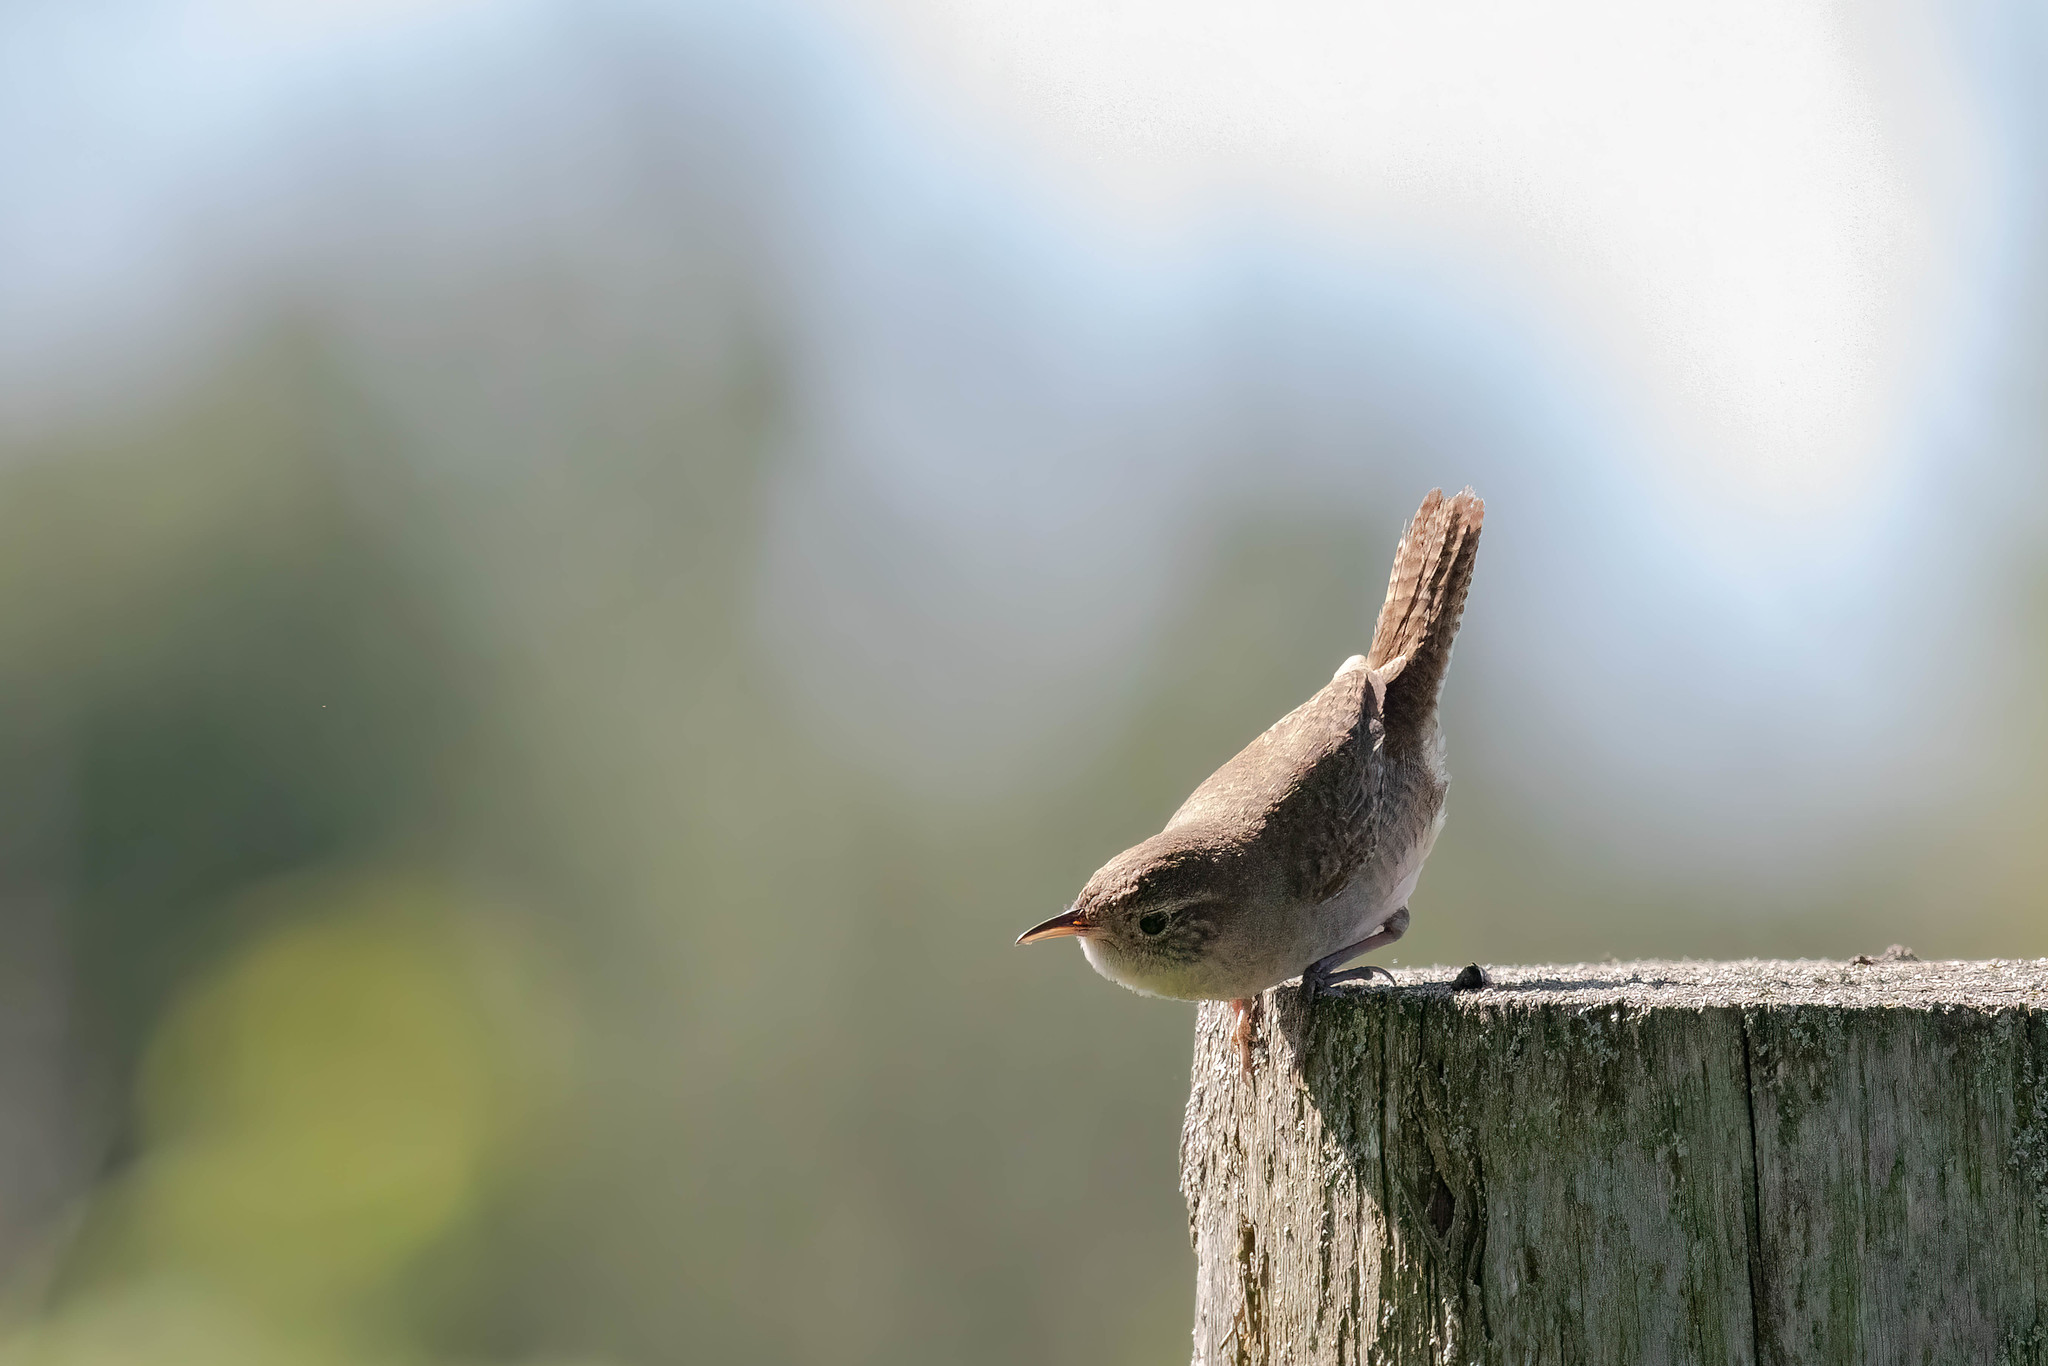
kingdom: Animalia
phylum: Chordata
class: Aves
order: Passeriformes
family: Troglodytidae
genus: Troglodytes
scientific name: Troglodytes aedon
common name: House wren
